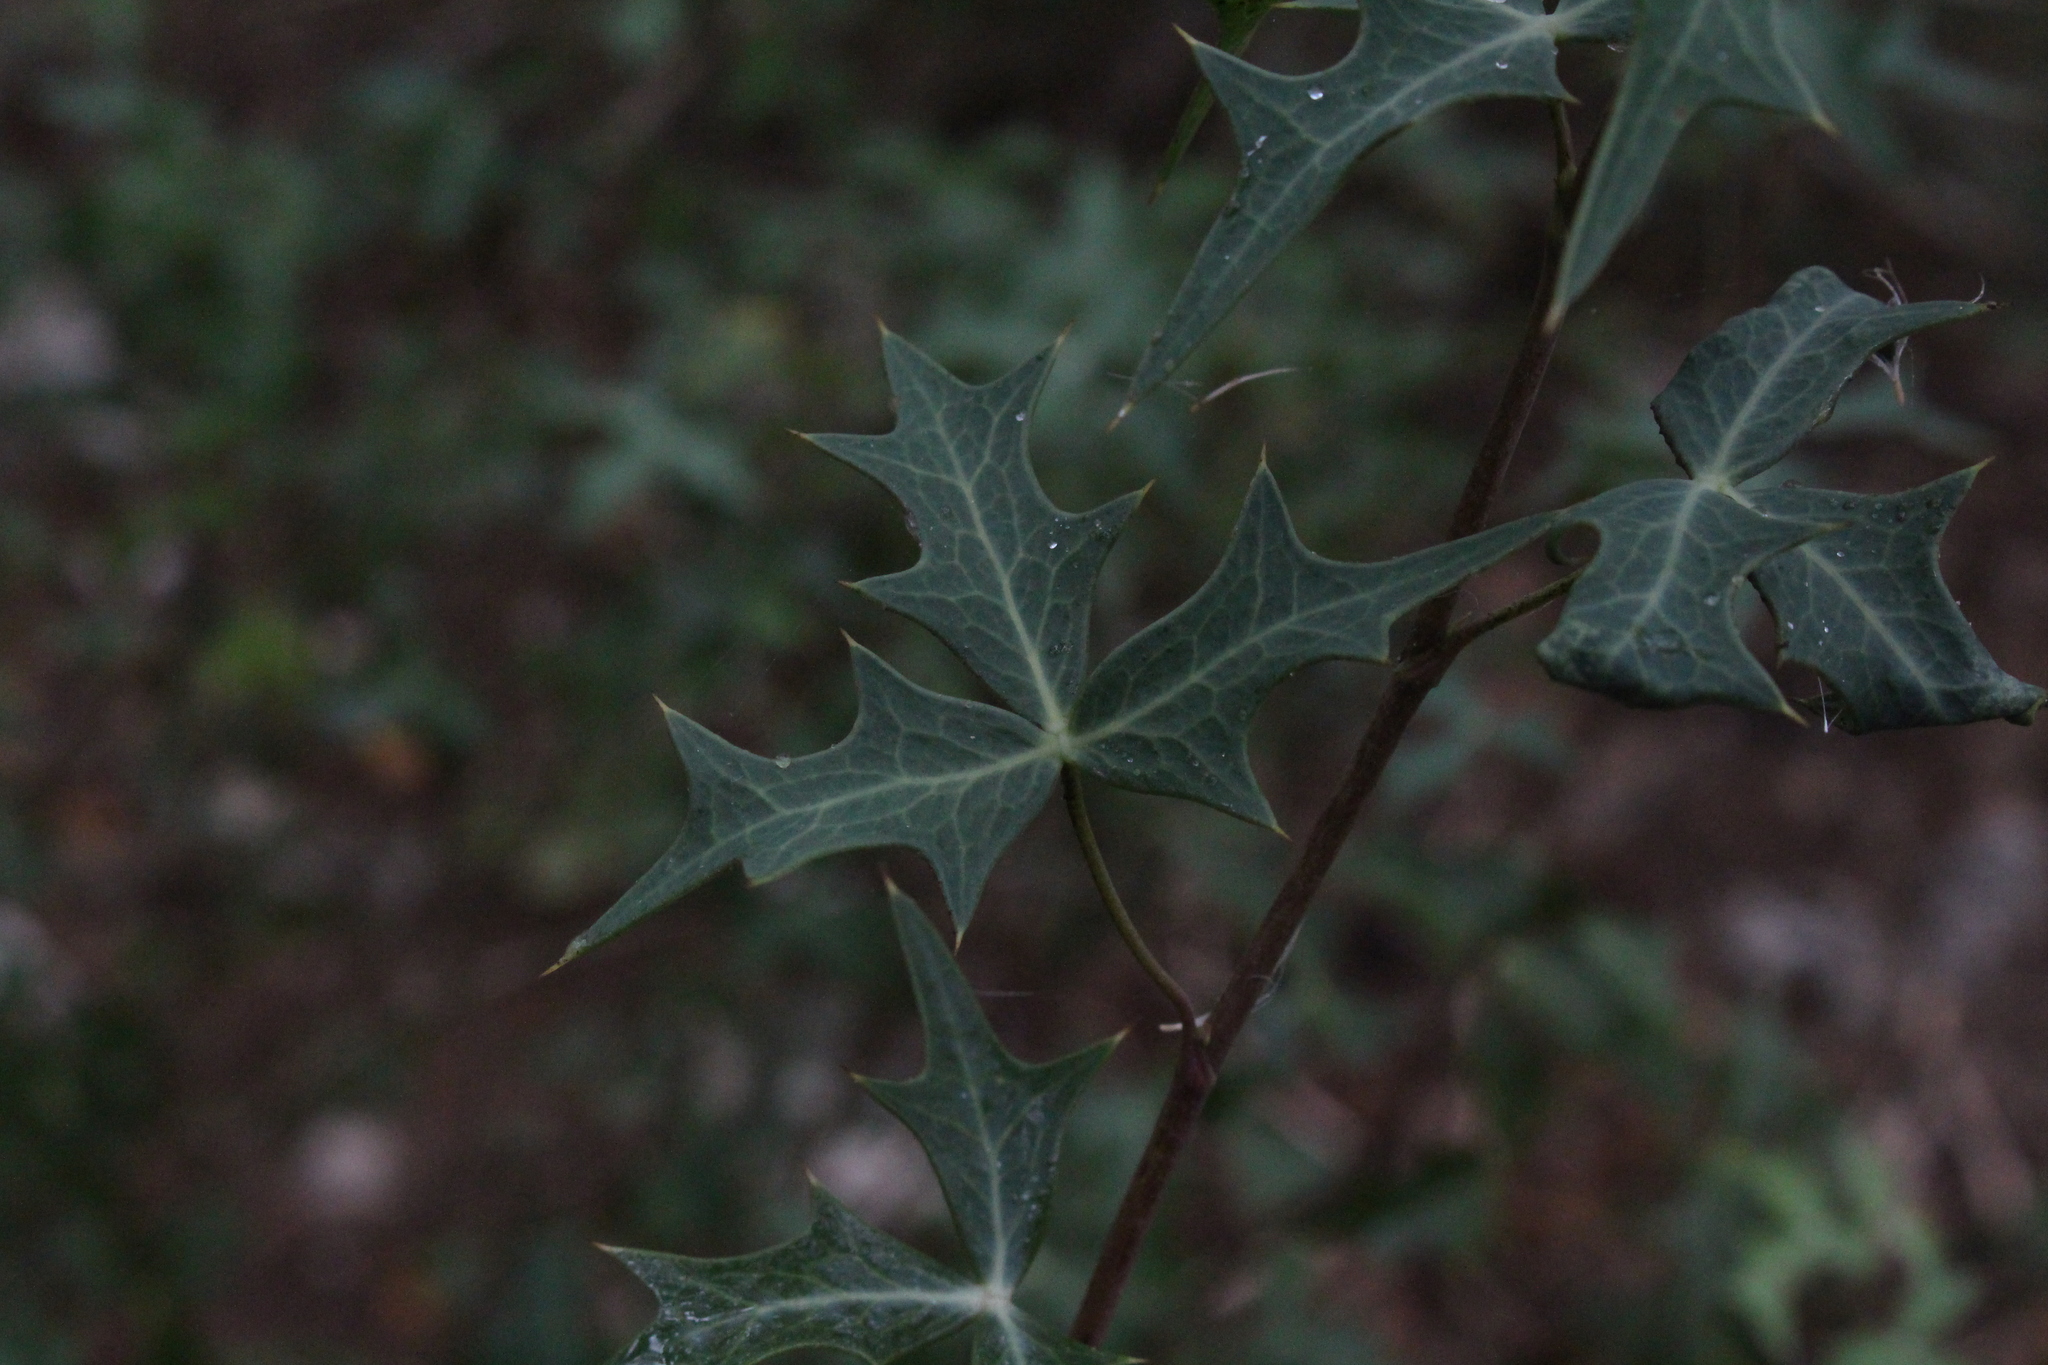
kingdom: Plantae
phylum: Tracheophyta
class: Magnoliopsida
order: Ranunculales
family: Berberidaceae
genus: Alloberberis
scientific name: Alloberberis trifoliolata
